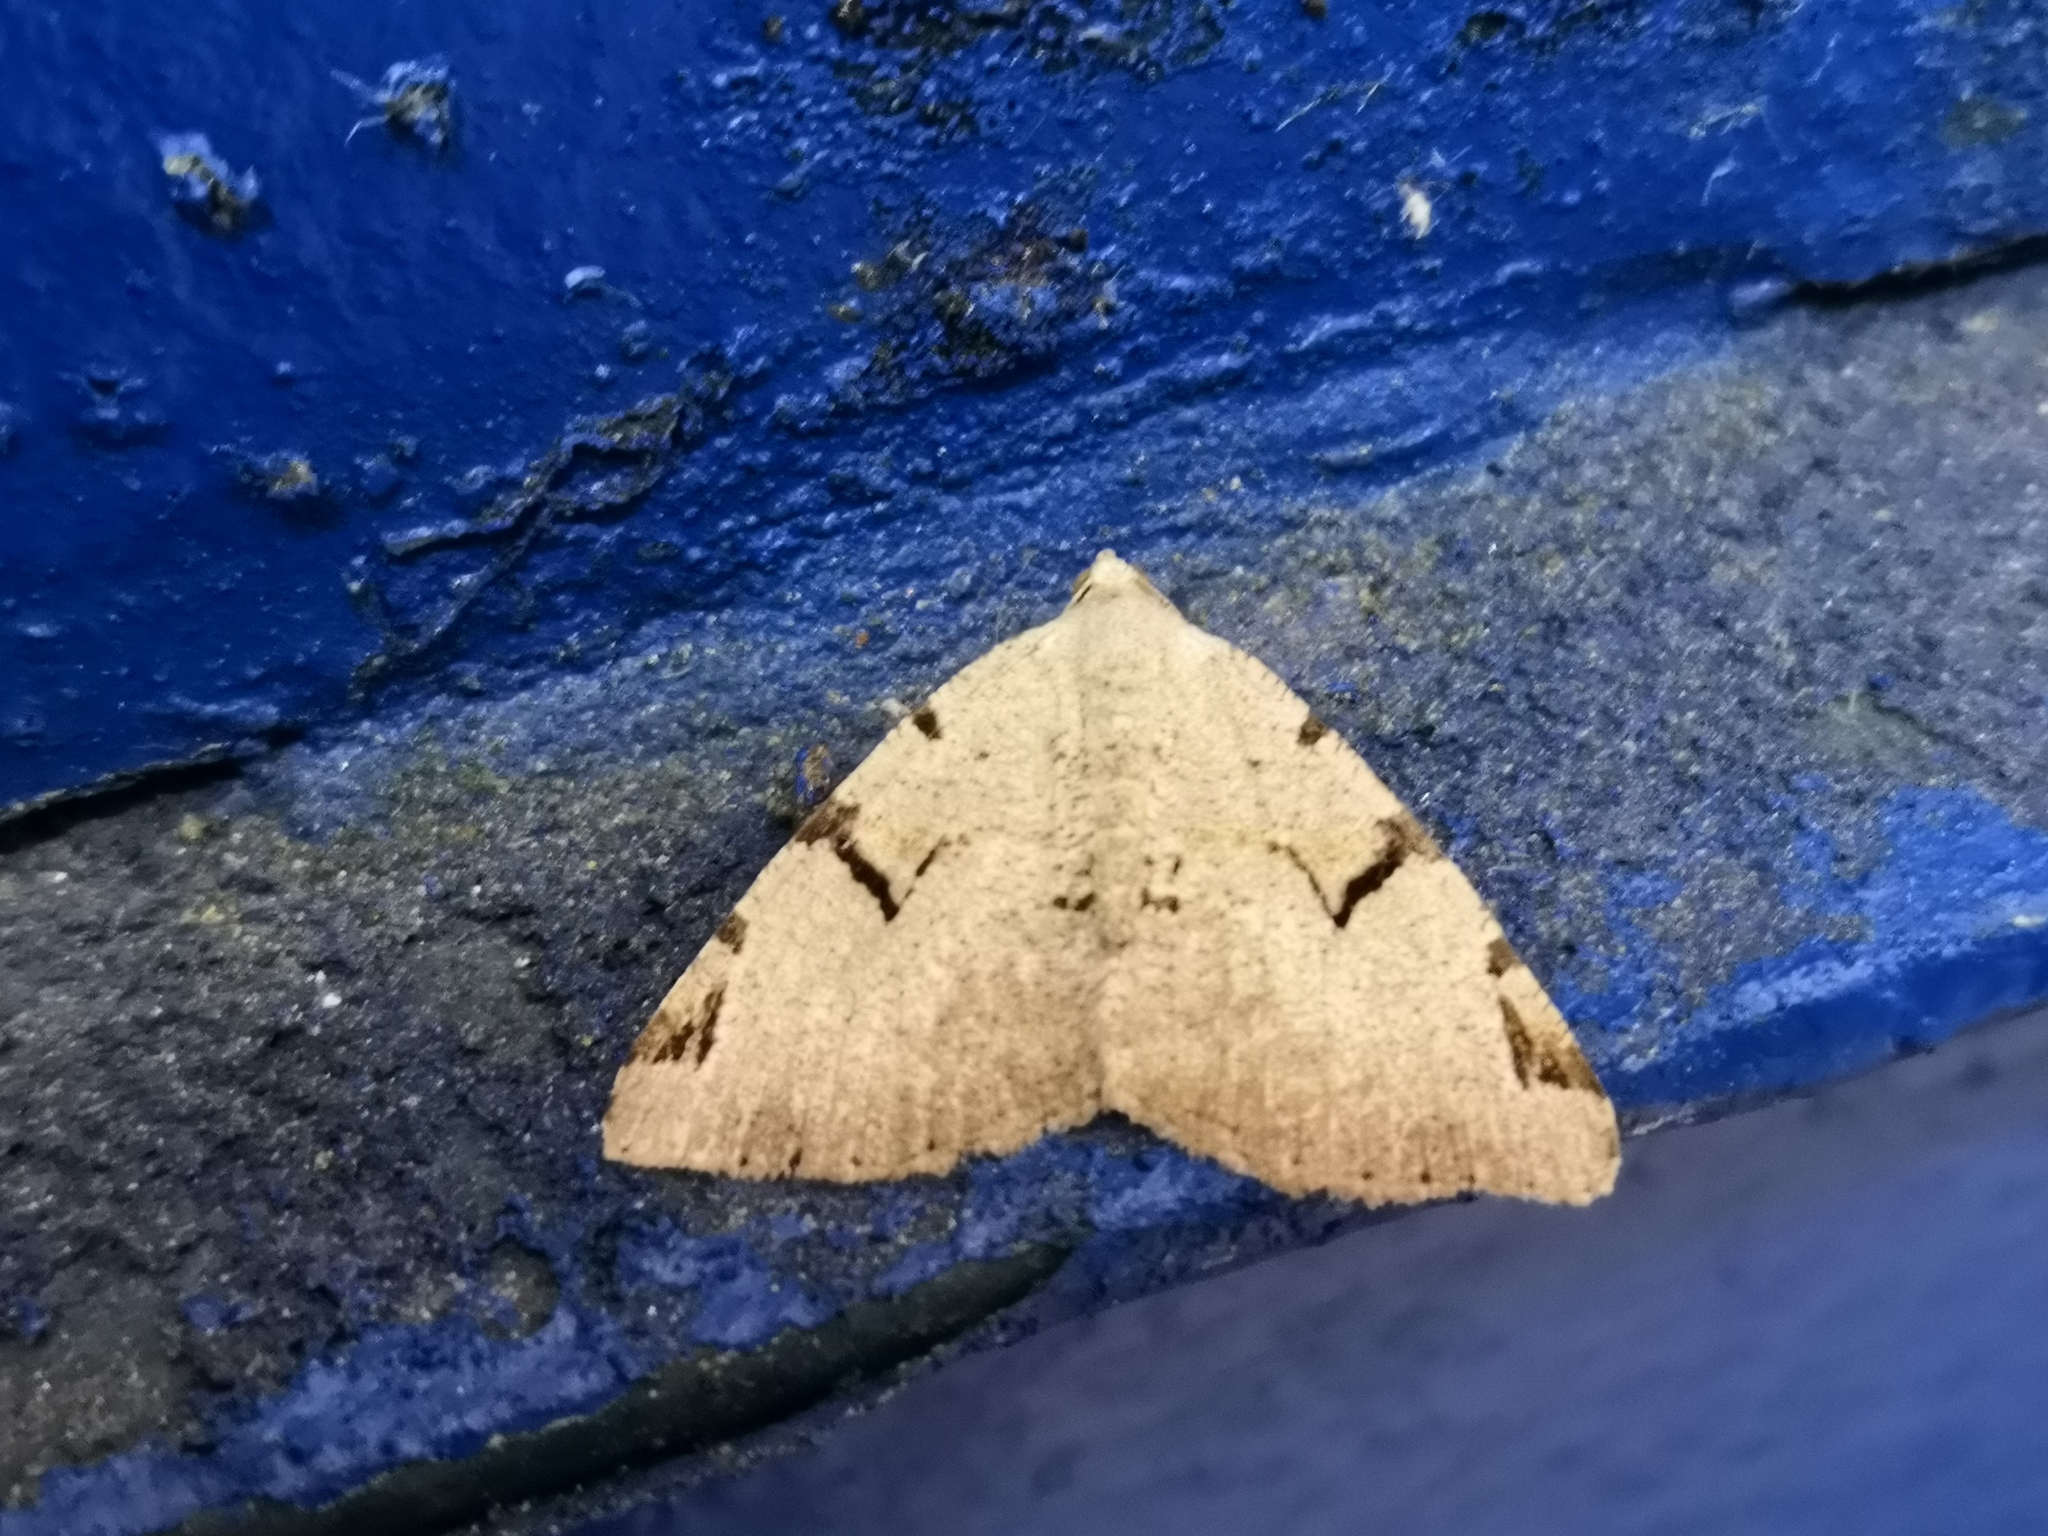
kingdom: Animalia
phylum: Arthropoda
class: Insecta
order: Lepidoptera
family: Geometridae
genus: Macaria
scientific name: Macaria wauaria
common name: V-moth
